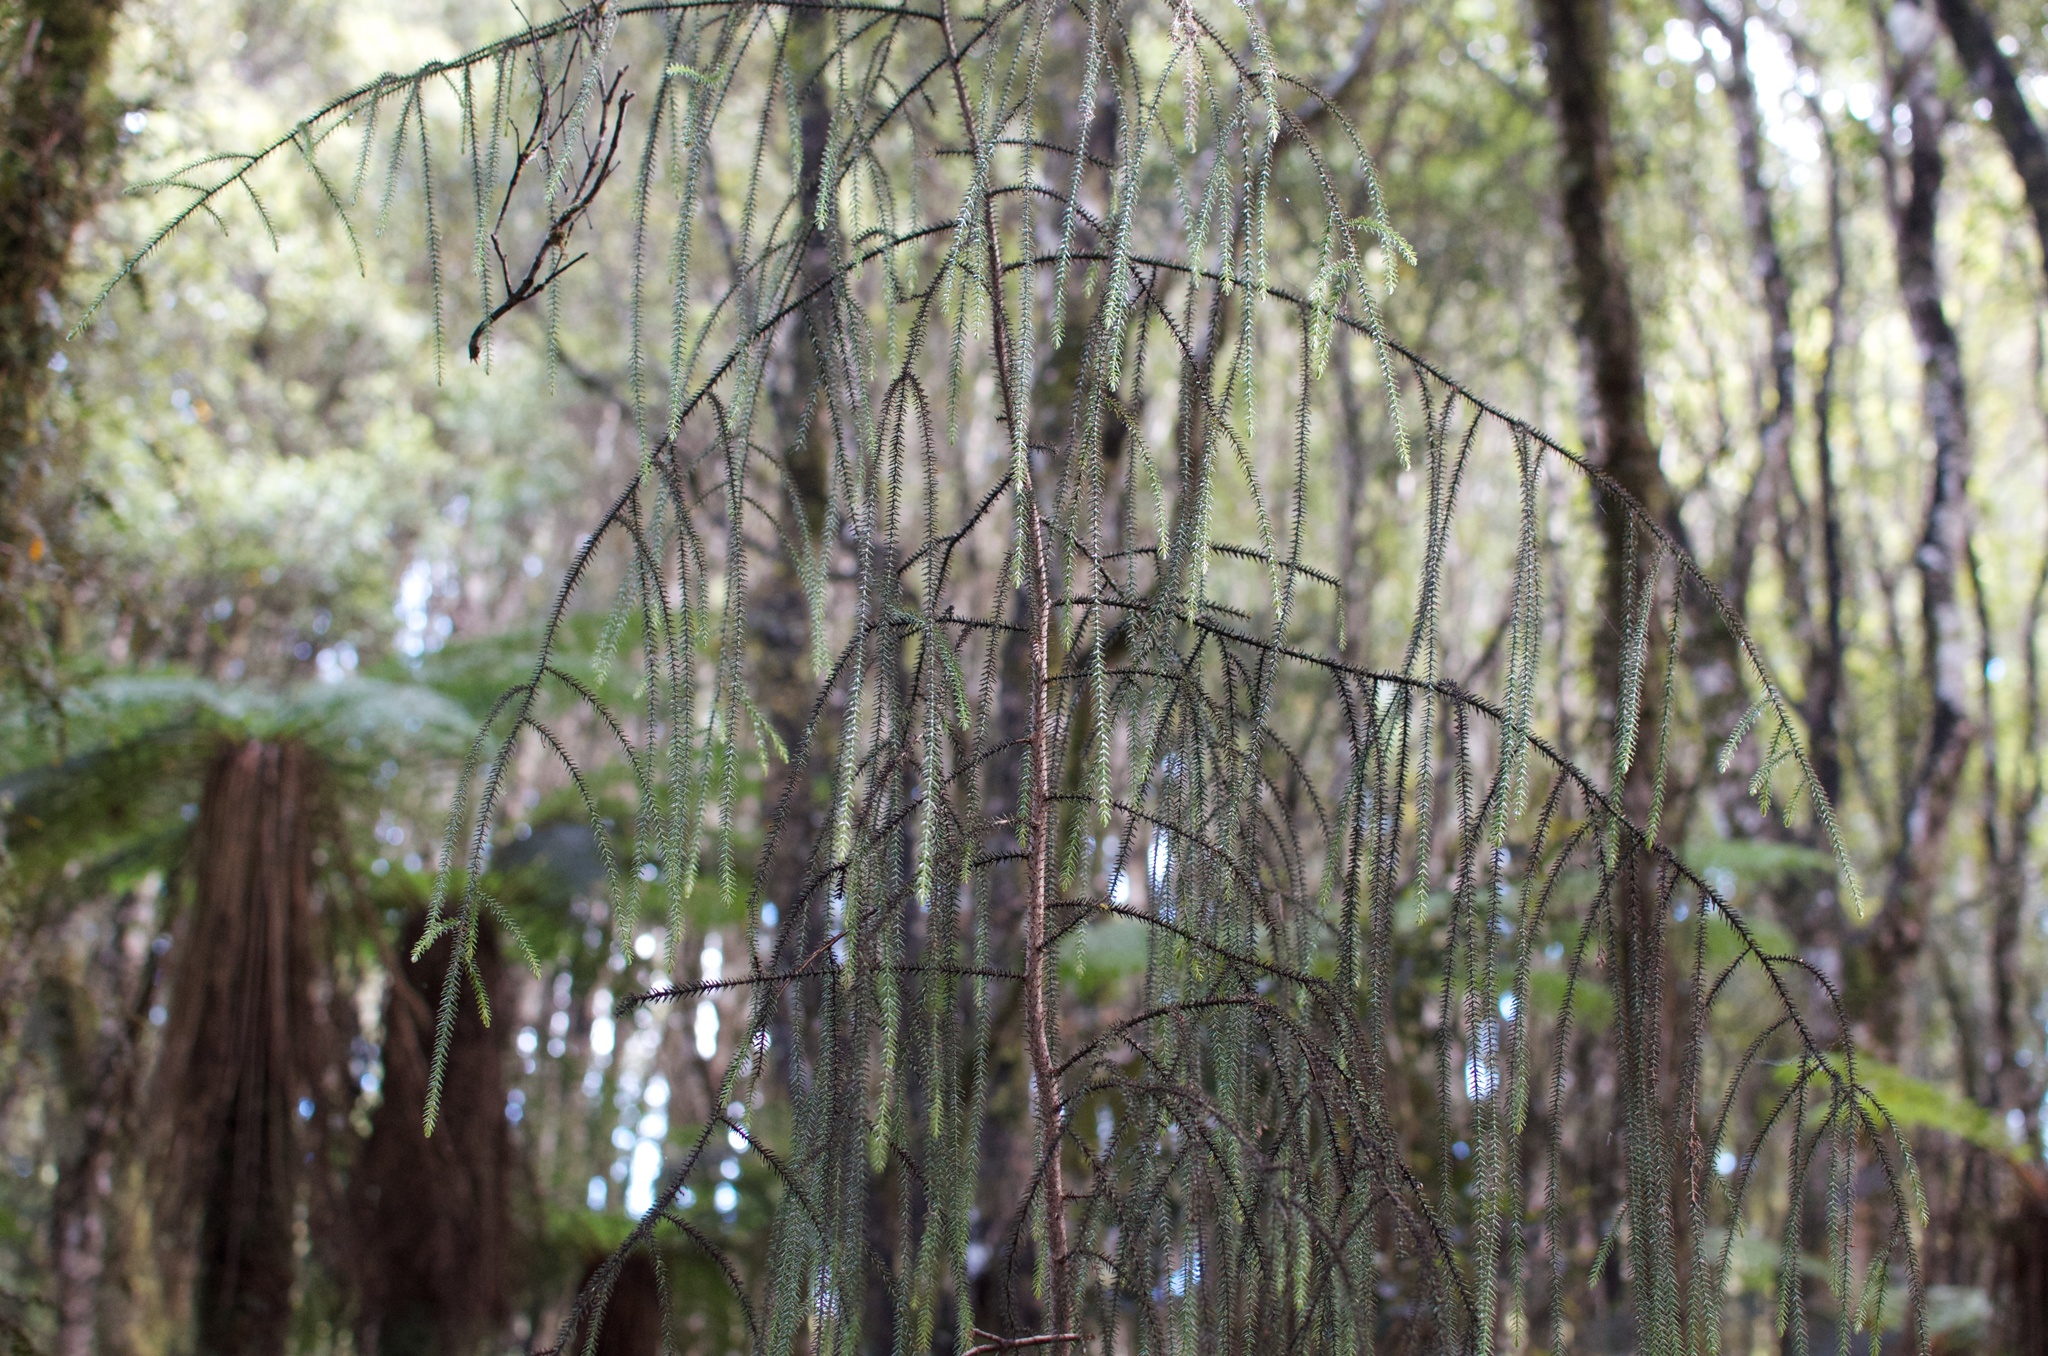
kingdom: Plantae
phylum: Tracheophyta
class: Pinopsida
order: Pinales
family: Podocarpaceae
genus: Dacrydium
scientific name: Dacrydium cupressinum
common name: Red pine
